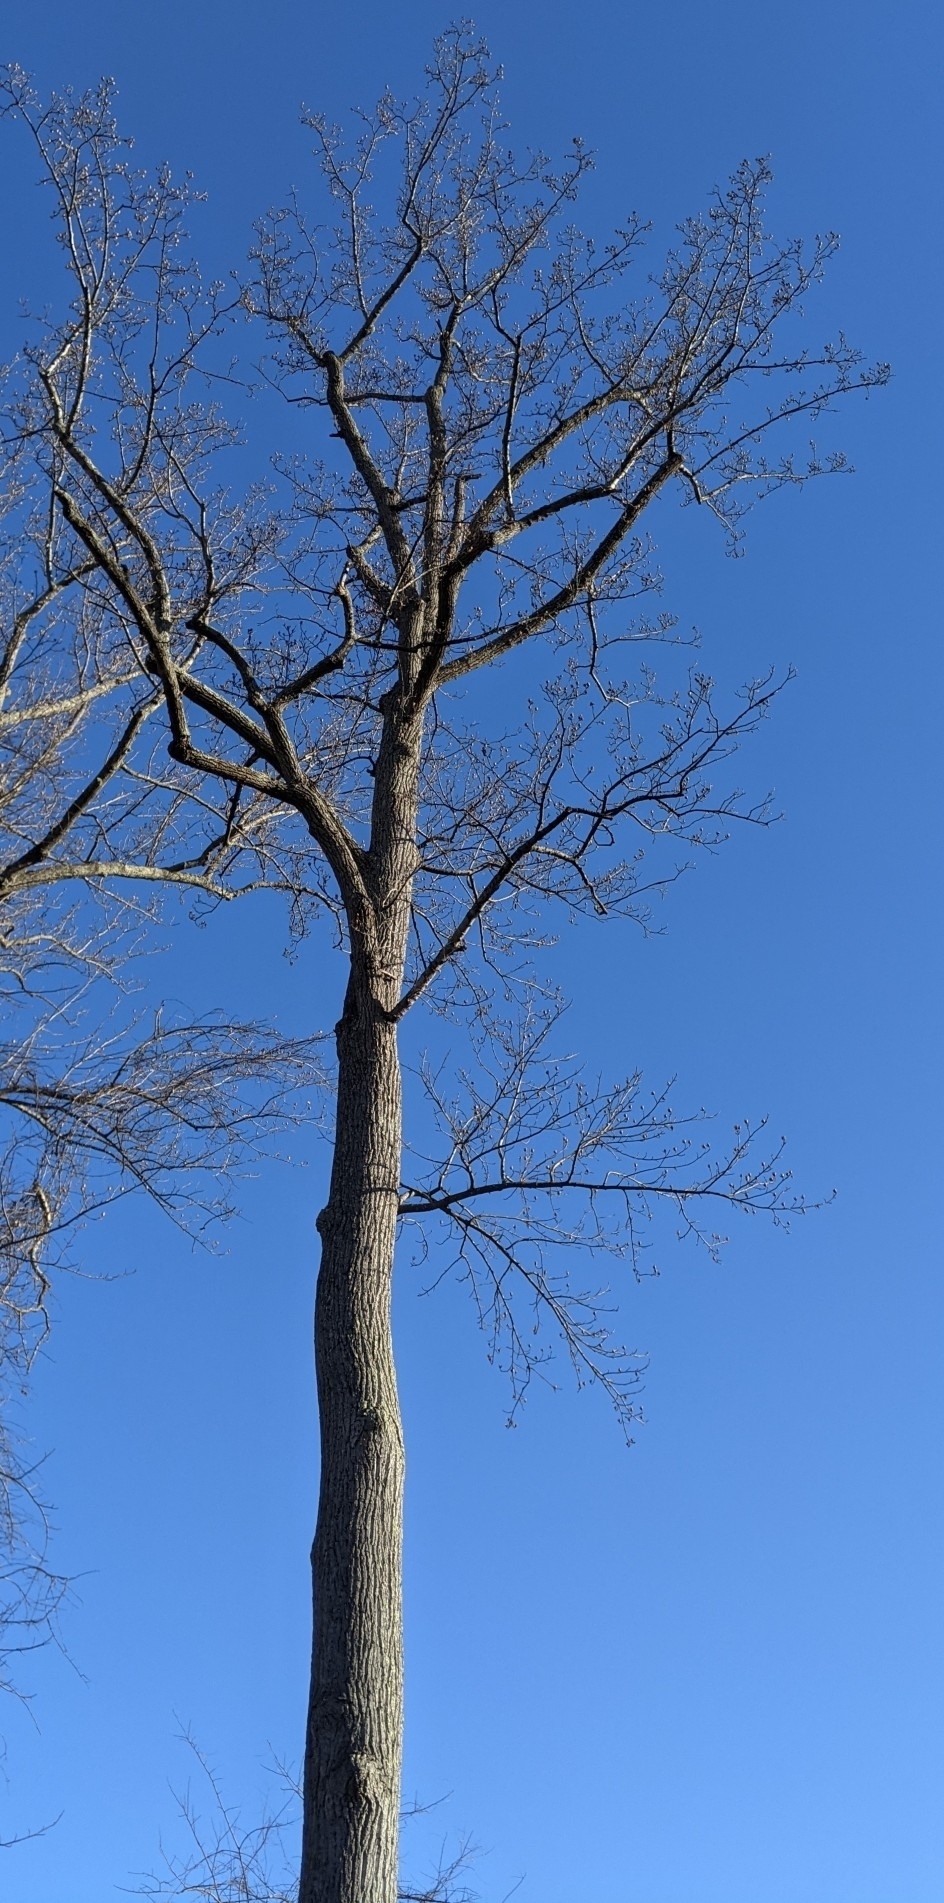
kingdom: Plantae
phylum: Tracheophyta
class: Magnoliopsida
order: Magnoliales
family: Magnoliaceae
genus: Liriodendron
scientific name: Liriodendron tulipifera
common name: Tulip tree
